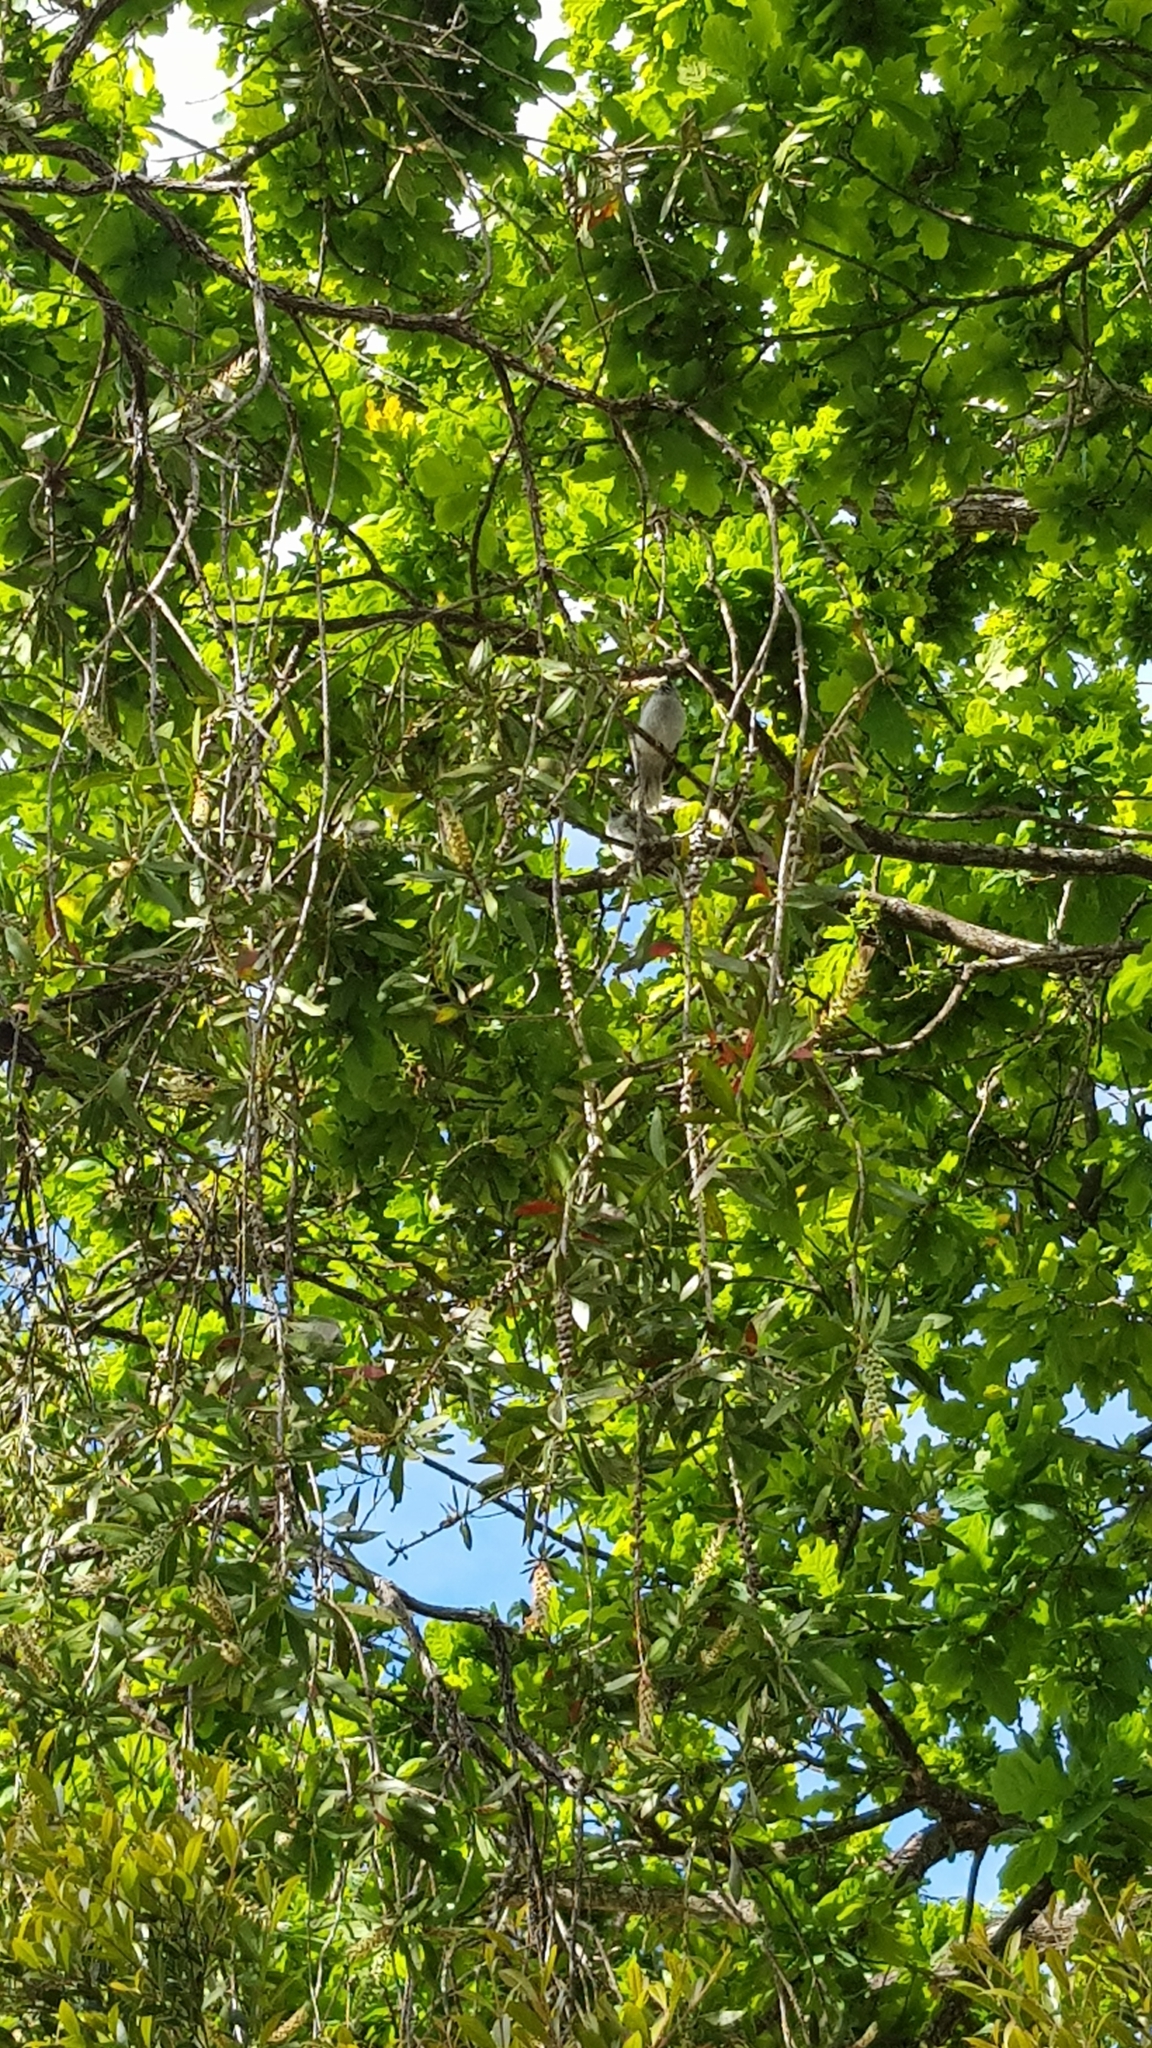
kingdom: Animalia
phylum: Chordata
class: Aves
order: Passeriformes
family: Meliphagidae
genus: Manorina
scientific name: Manorina melanocephala
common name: Noisy miner
